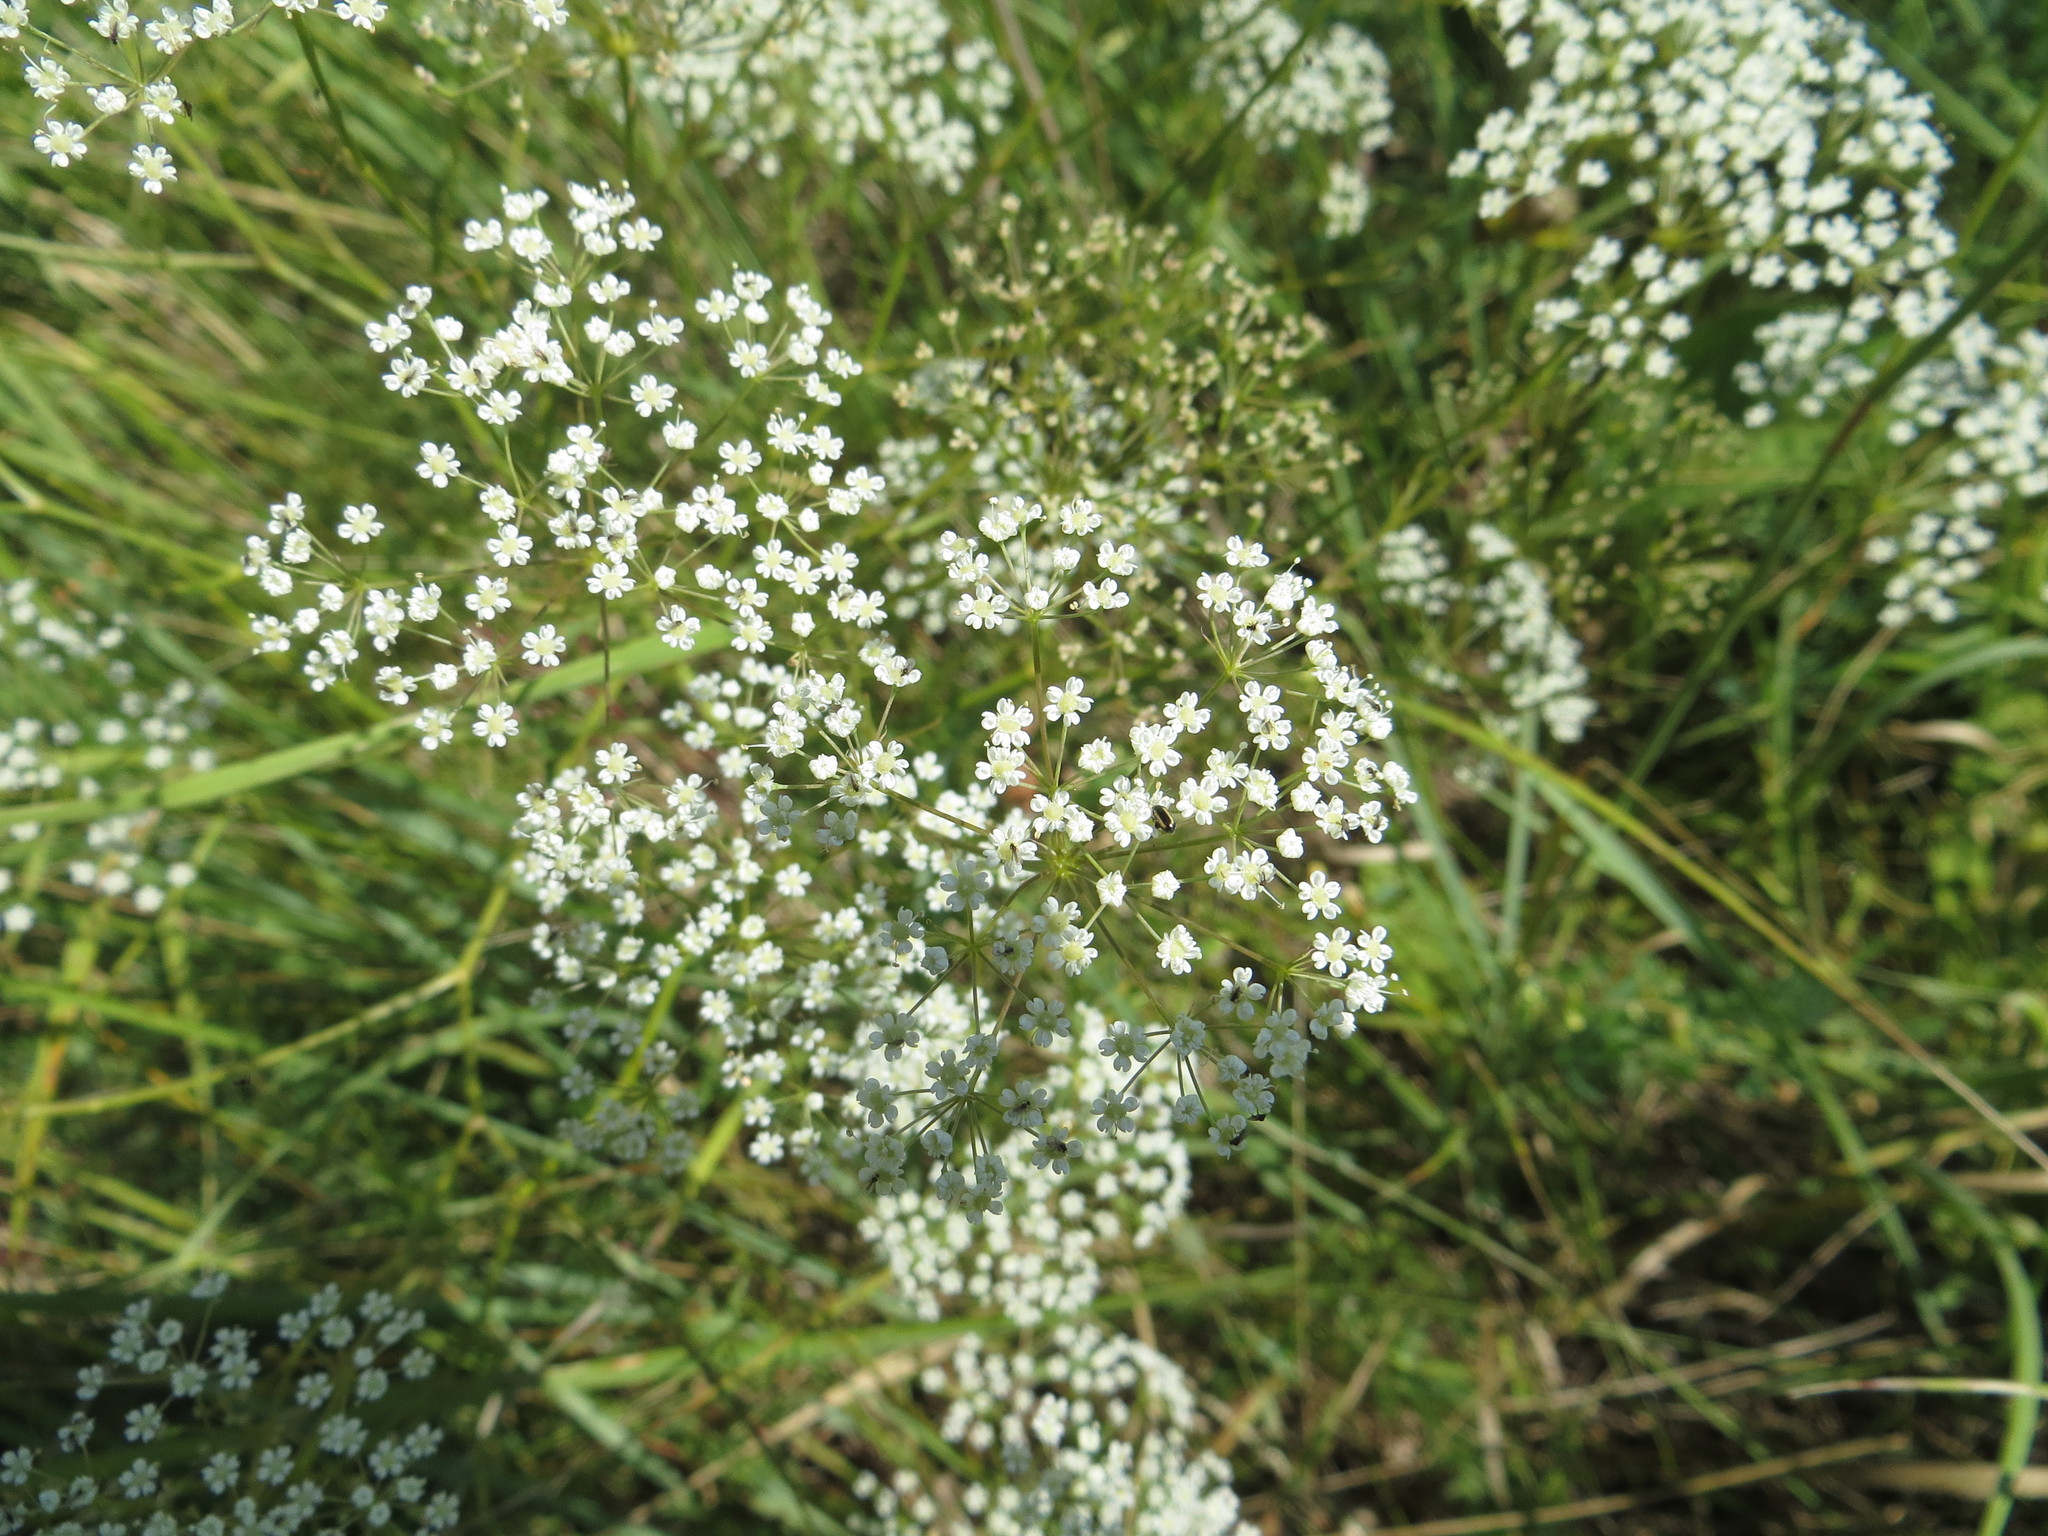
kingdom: Plantae
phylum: Tracheophyta
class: Magnoliopsida
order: Apiales
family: Apiaceae
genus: Falcaria
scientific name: Falcaria vulgaris
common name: Longleaf
